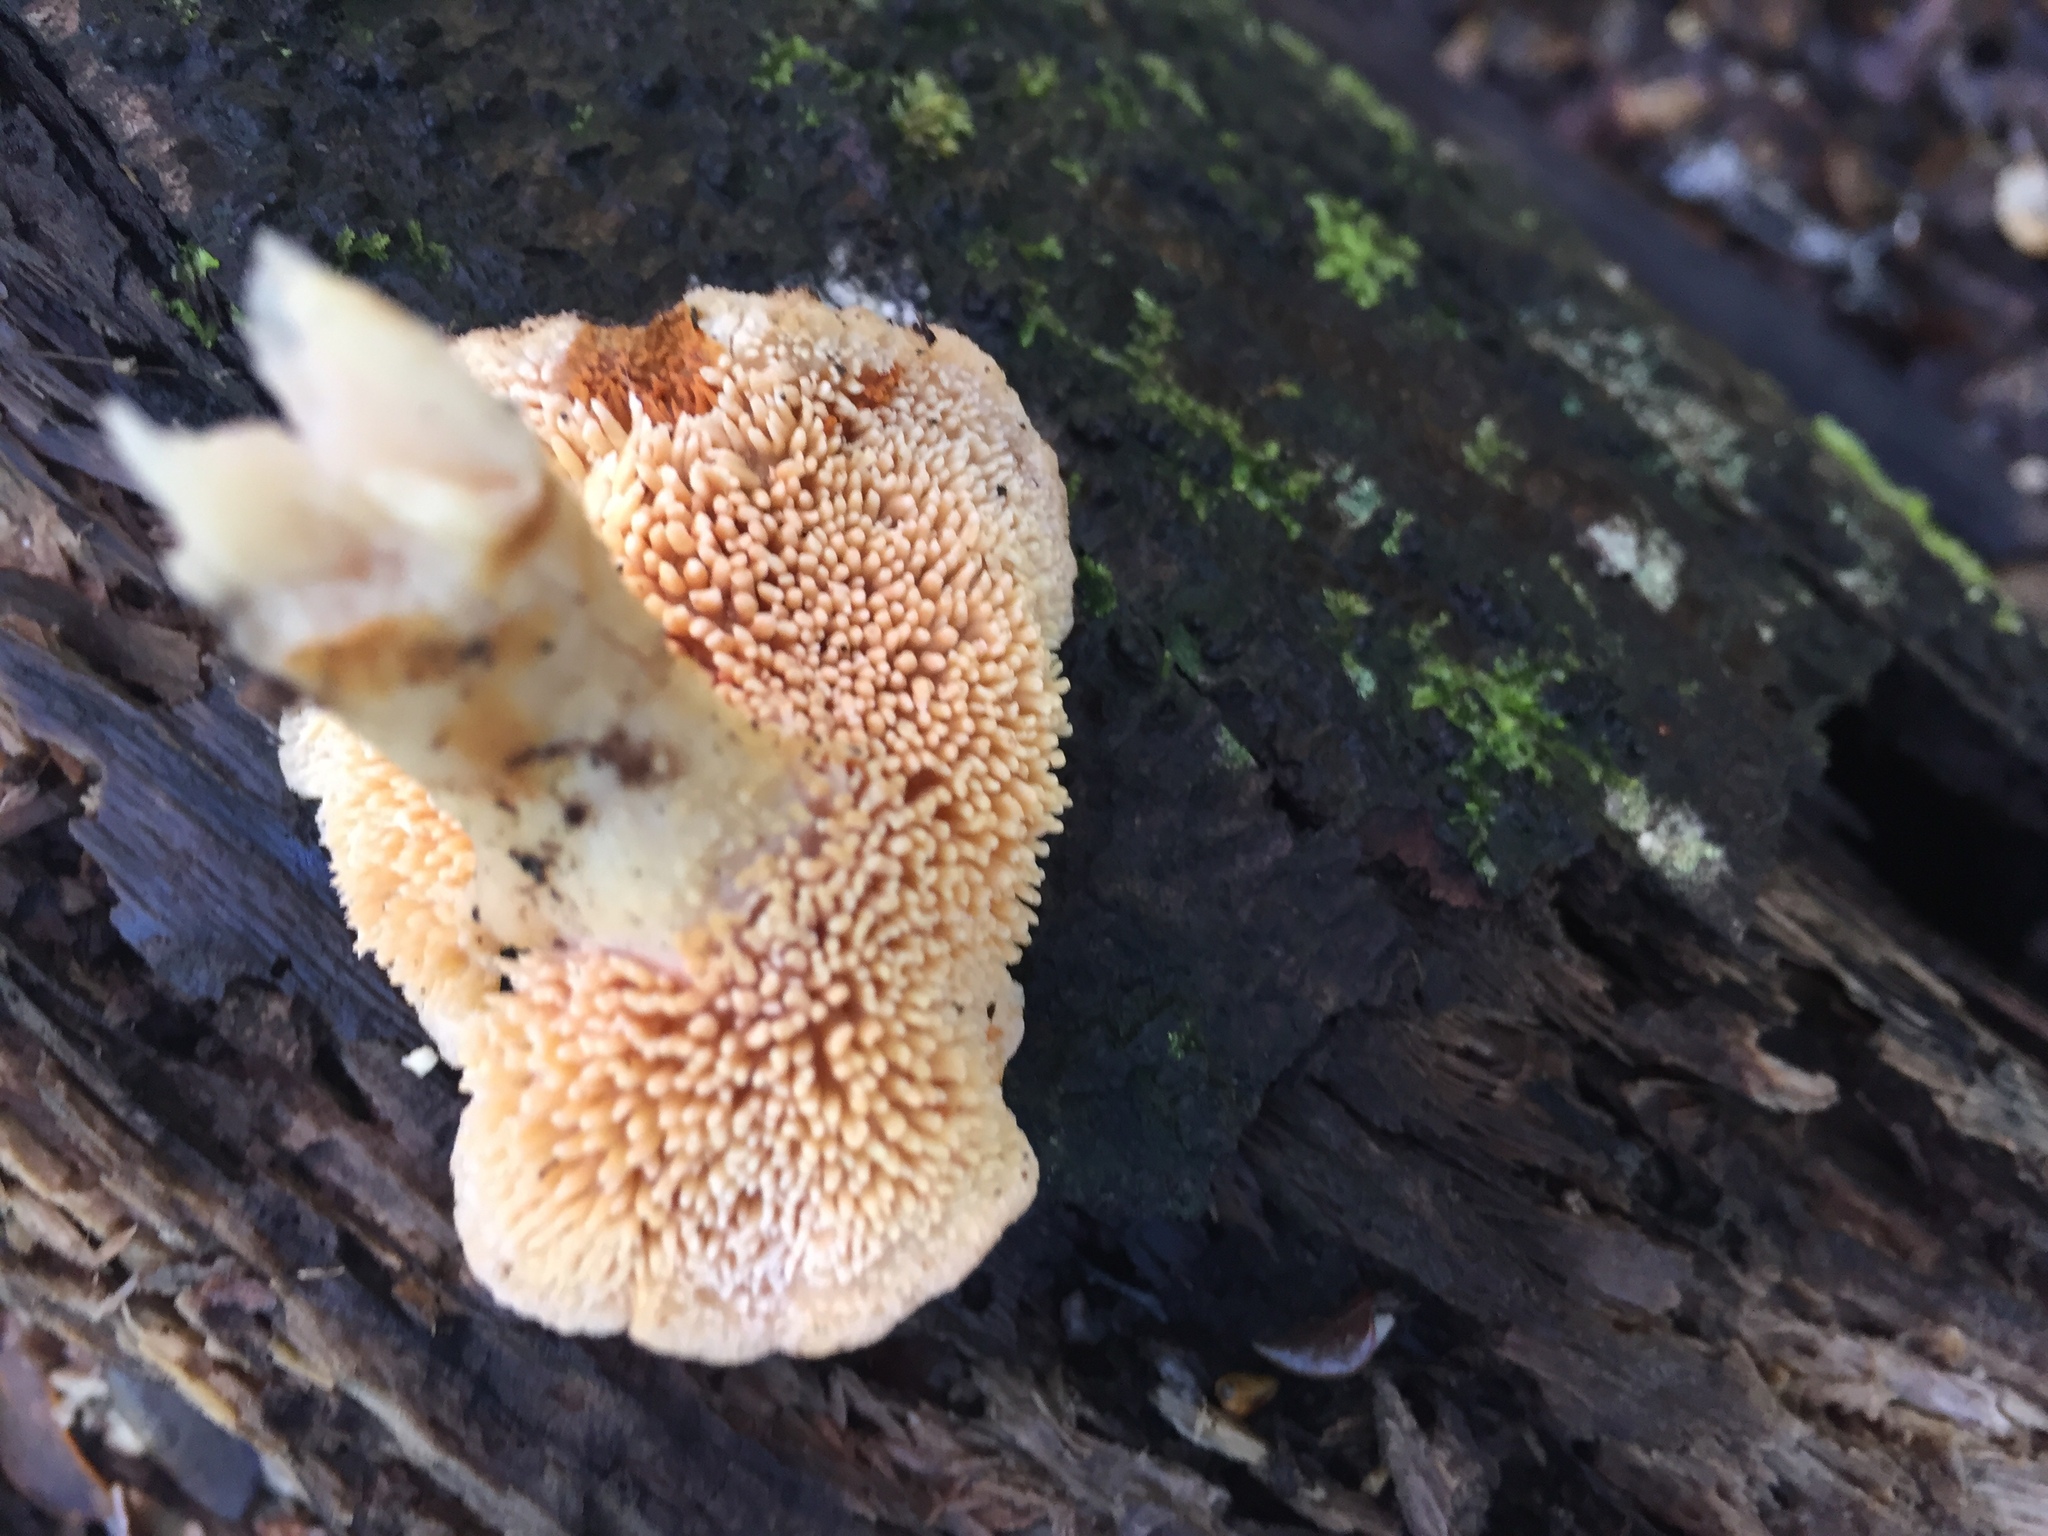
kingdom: Fungi
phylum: Basidiomycota
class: Agaricomycetes
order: Cantharellales
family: Hydnaceae
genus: Hydnum
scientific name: Hydnum ambustum
